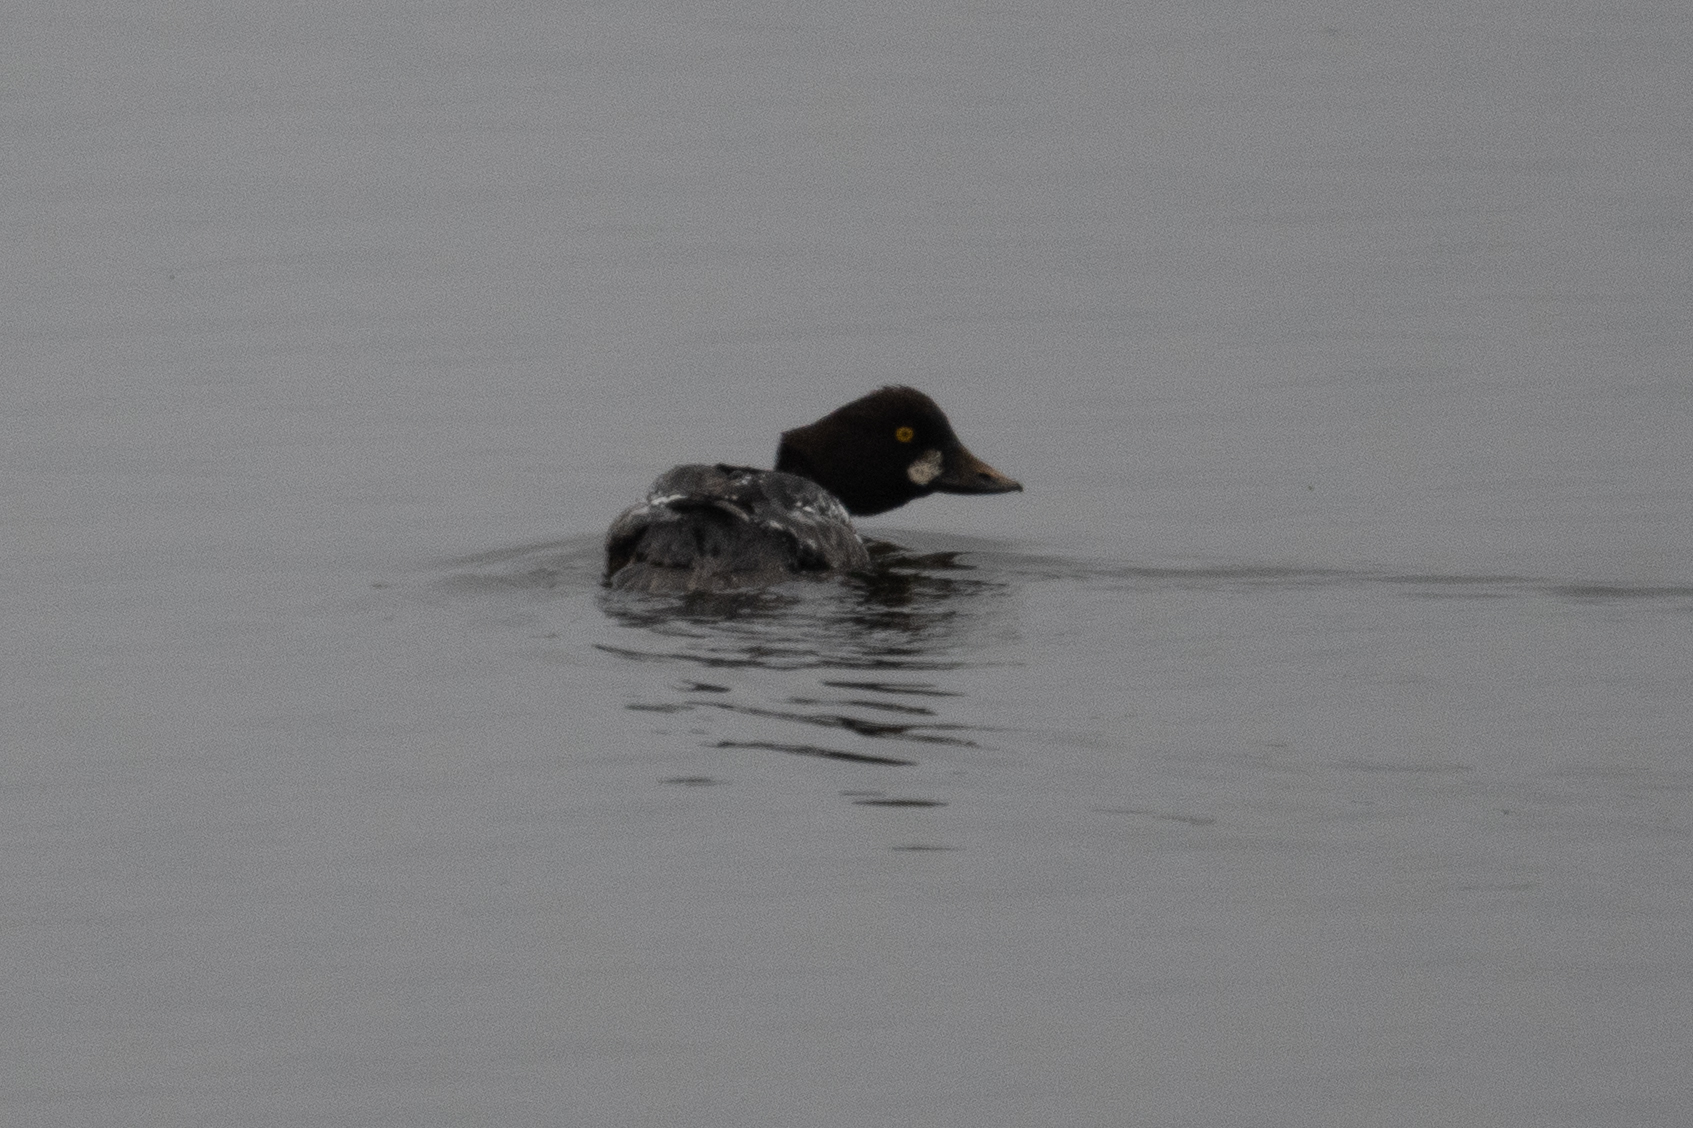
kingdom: Animalia
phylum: Chordata
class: Aves
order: Anseriformes
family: Anatidae
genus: Bucephala
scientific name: Bucephala clangula
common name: Common goldeneye
